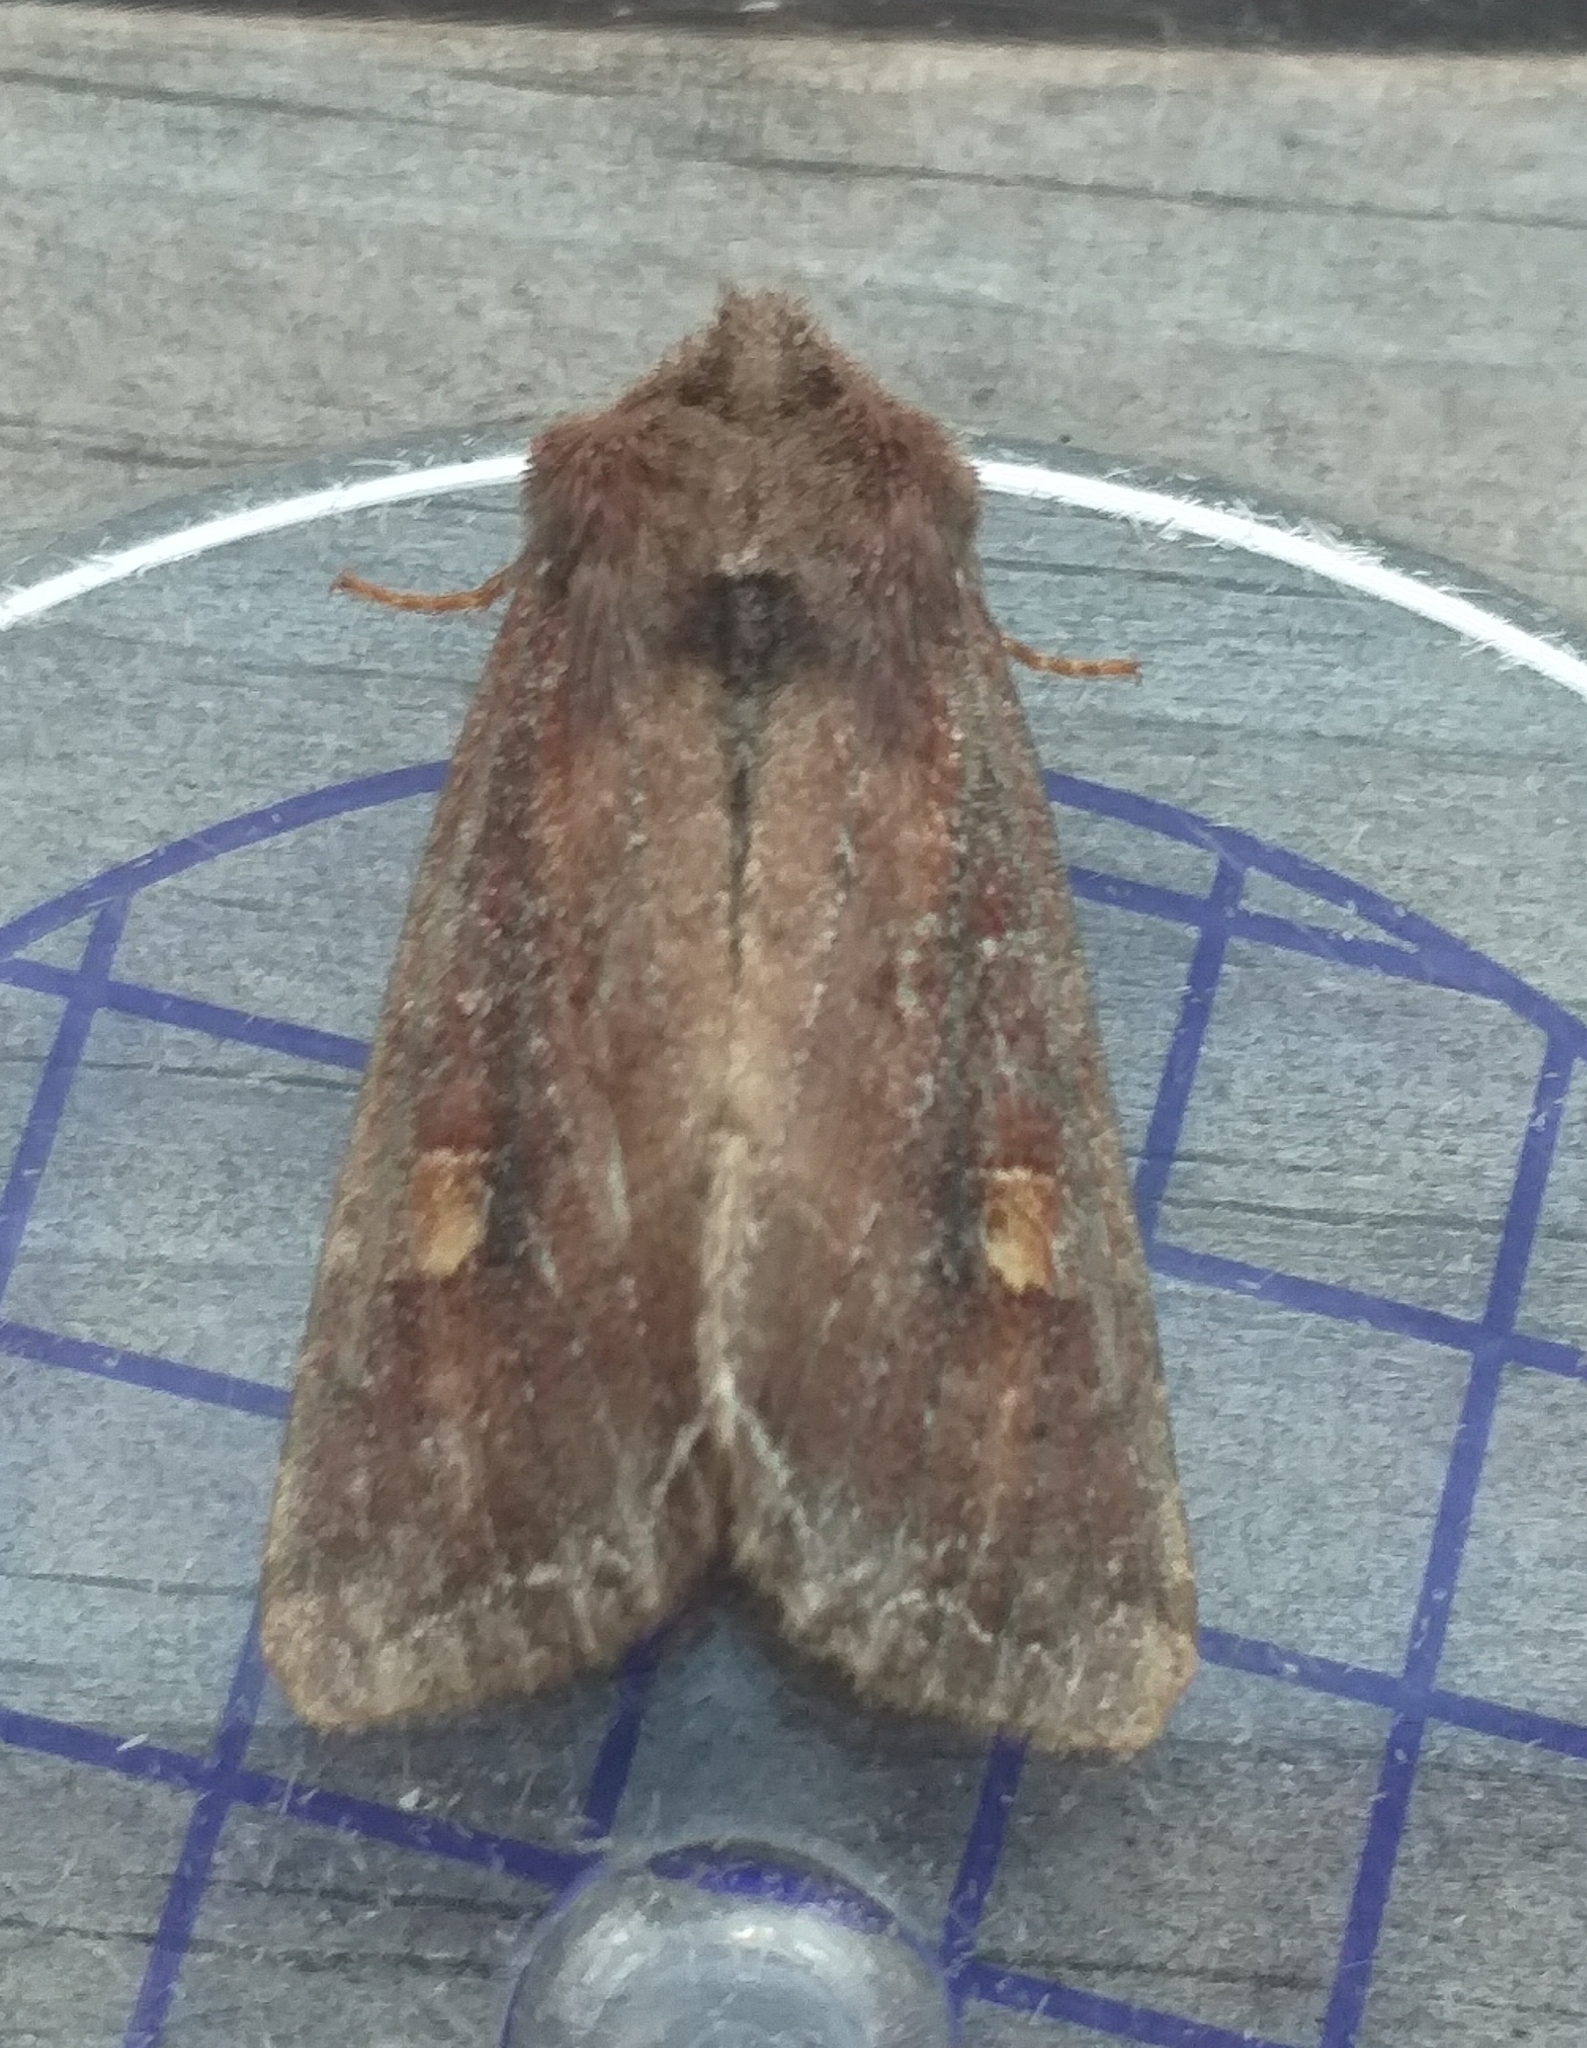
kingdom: Animalia
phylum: Arthropoda
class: Insecta
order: Lepidoptera
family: Noctuidae
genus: Lacanobia
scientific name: Lacanobia oleracea
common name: Bright-line brown-eye
